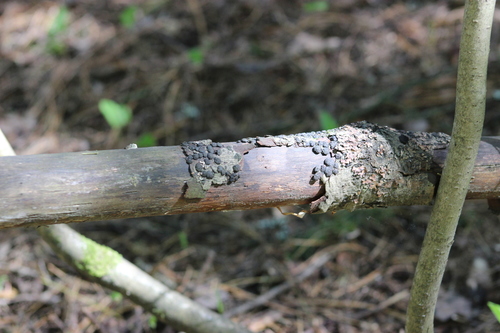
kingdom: Fungi
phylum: Ascomycota
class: Sordariomycetes
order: Xylariales
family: Hypoxylaceae
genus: Jackrogersella
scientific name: Jackrogersella multiformis
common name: Birch woodwart
